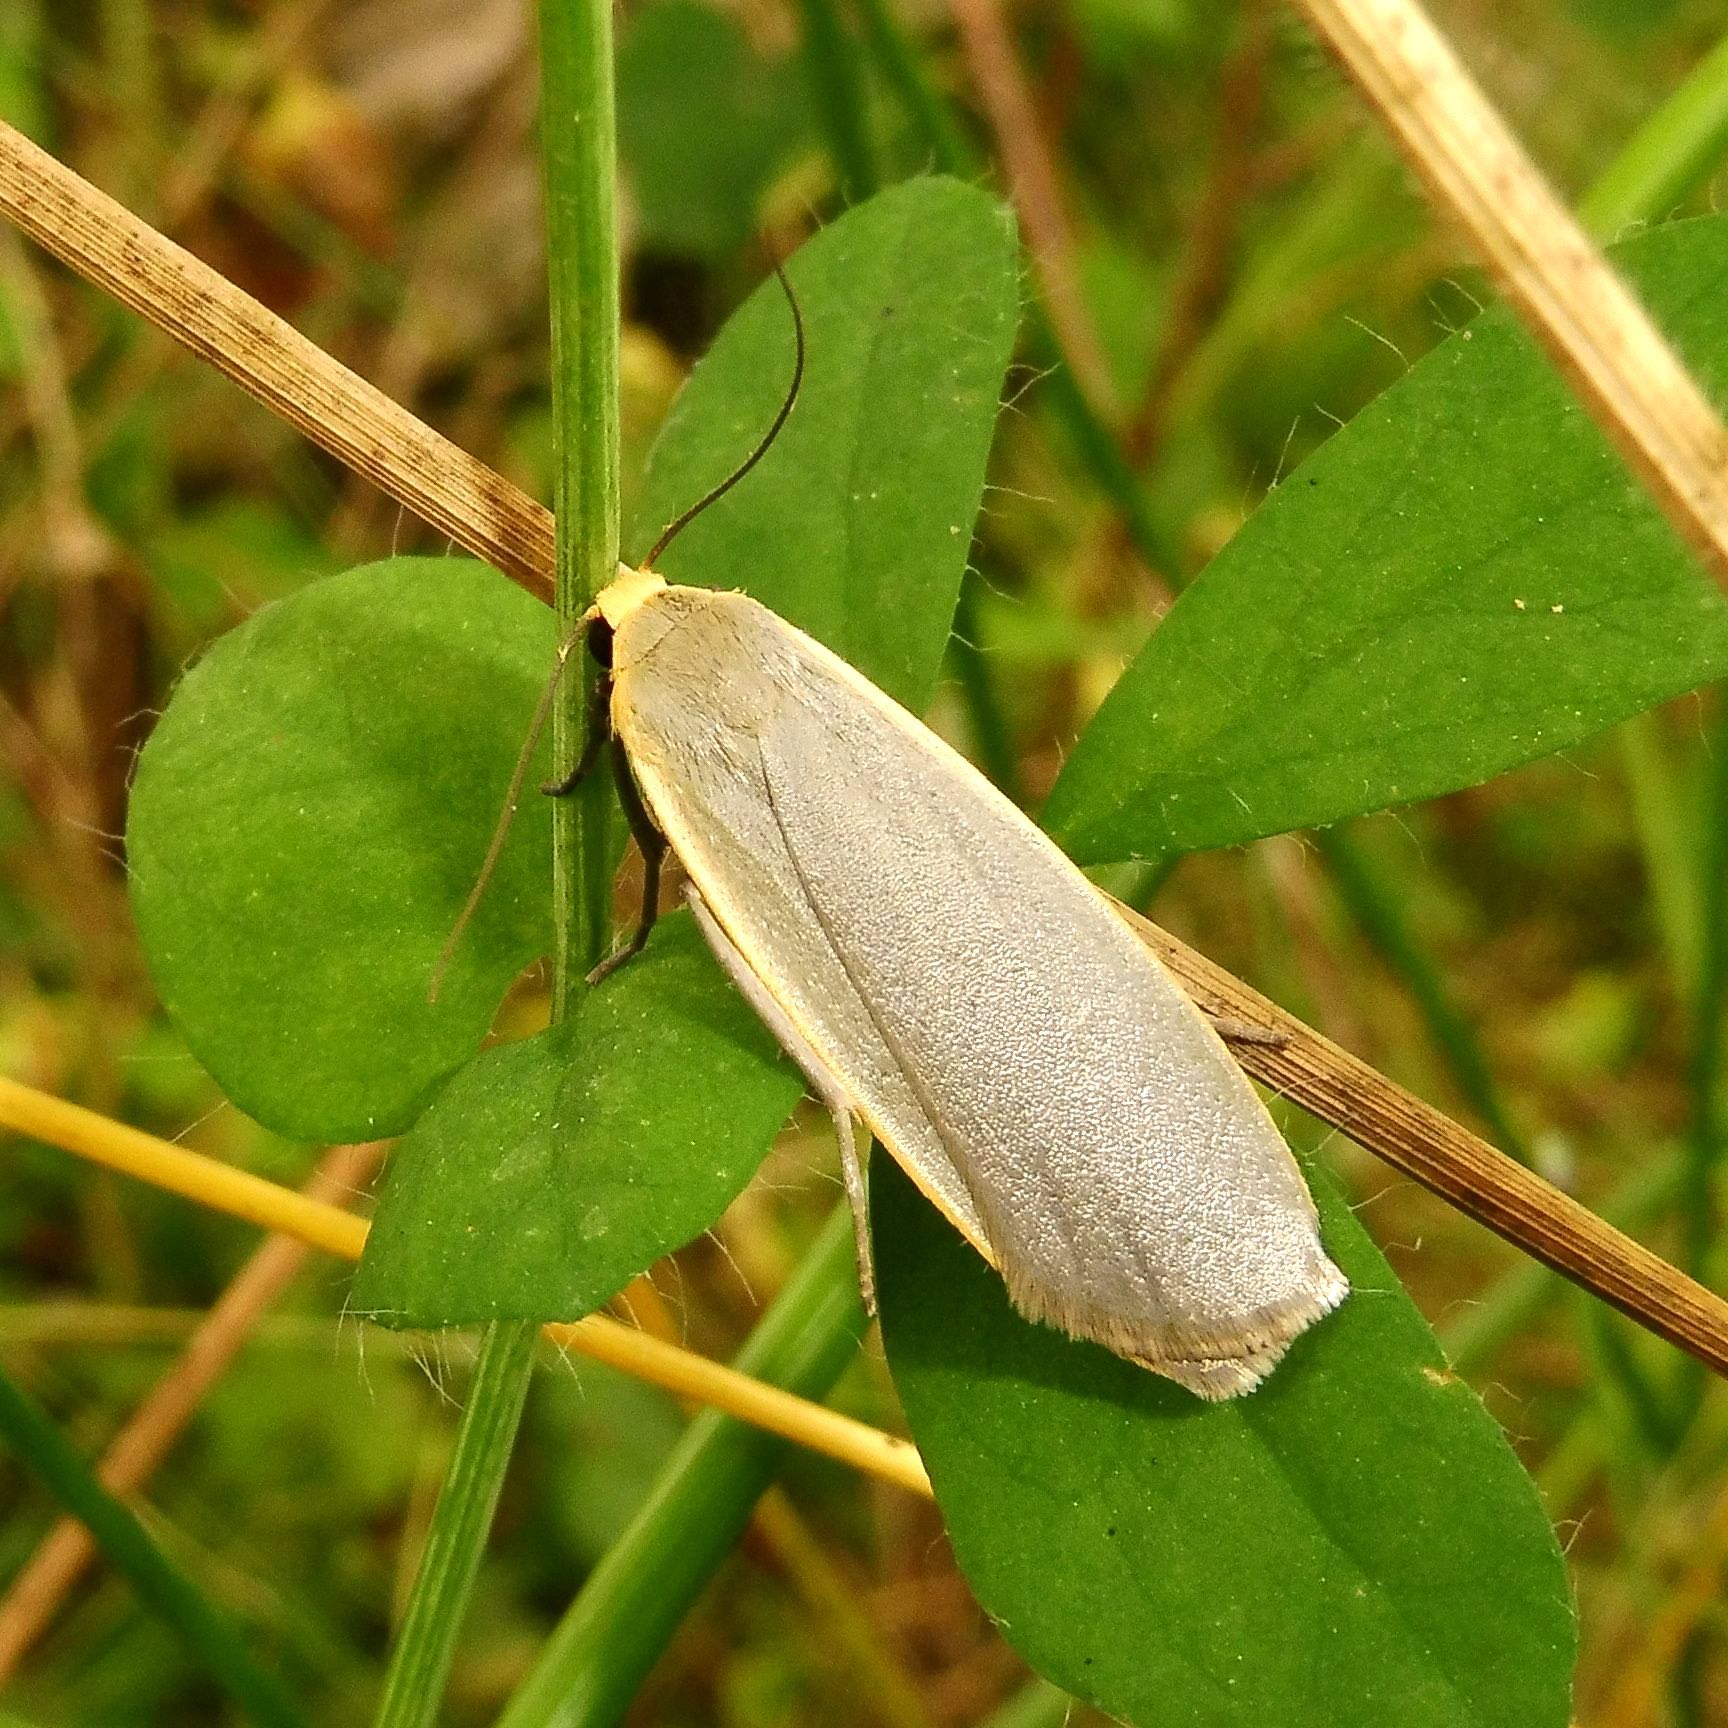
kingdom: Animalia
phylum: Arthropoda
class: Insecta
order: Lepidoptera
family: Erebidae
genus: Collita
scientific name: Collita griseola
